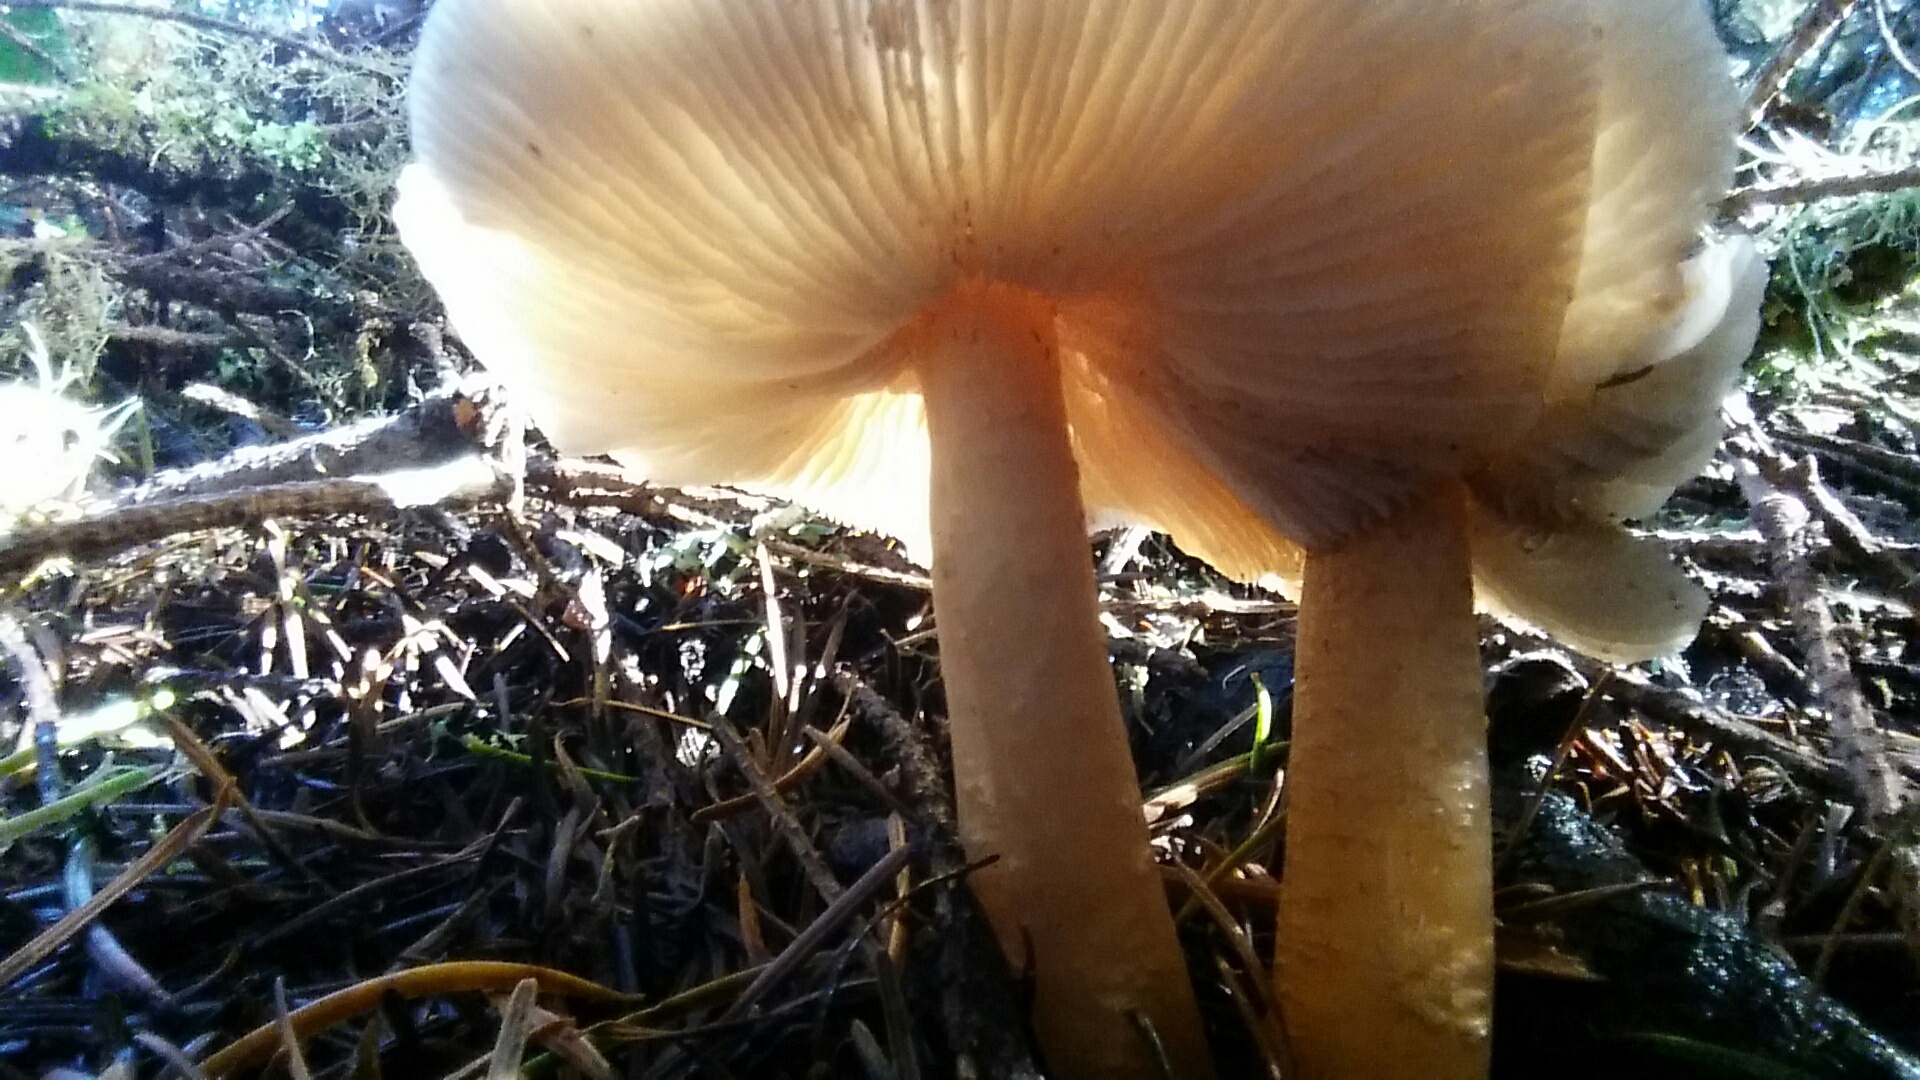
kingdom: Fungi
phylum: Basidiomycota
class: Agaricomycetes
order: Agaricales
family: Omphalotaceae
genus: Rhodocollybia
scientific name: Rhodocollybia butyracea
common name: Butter cap
